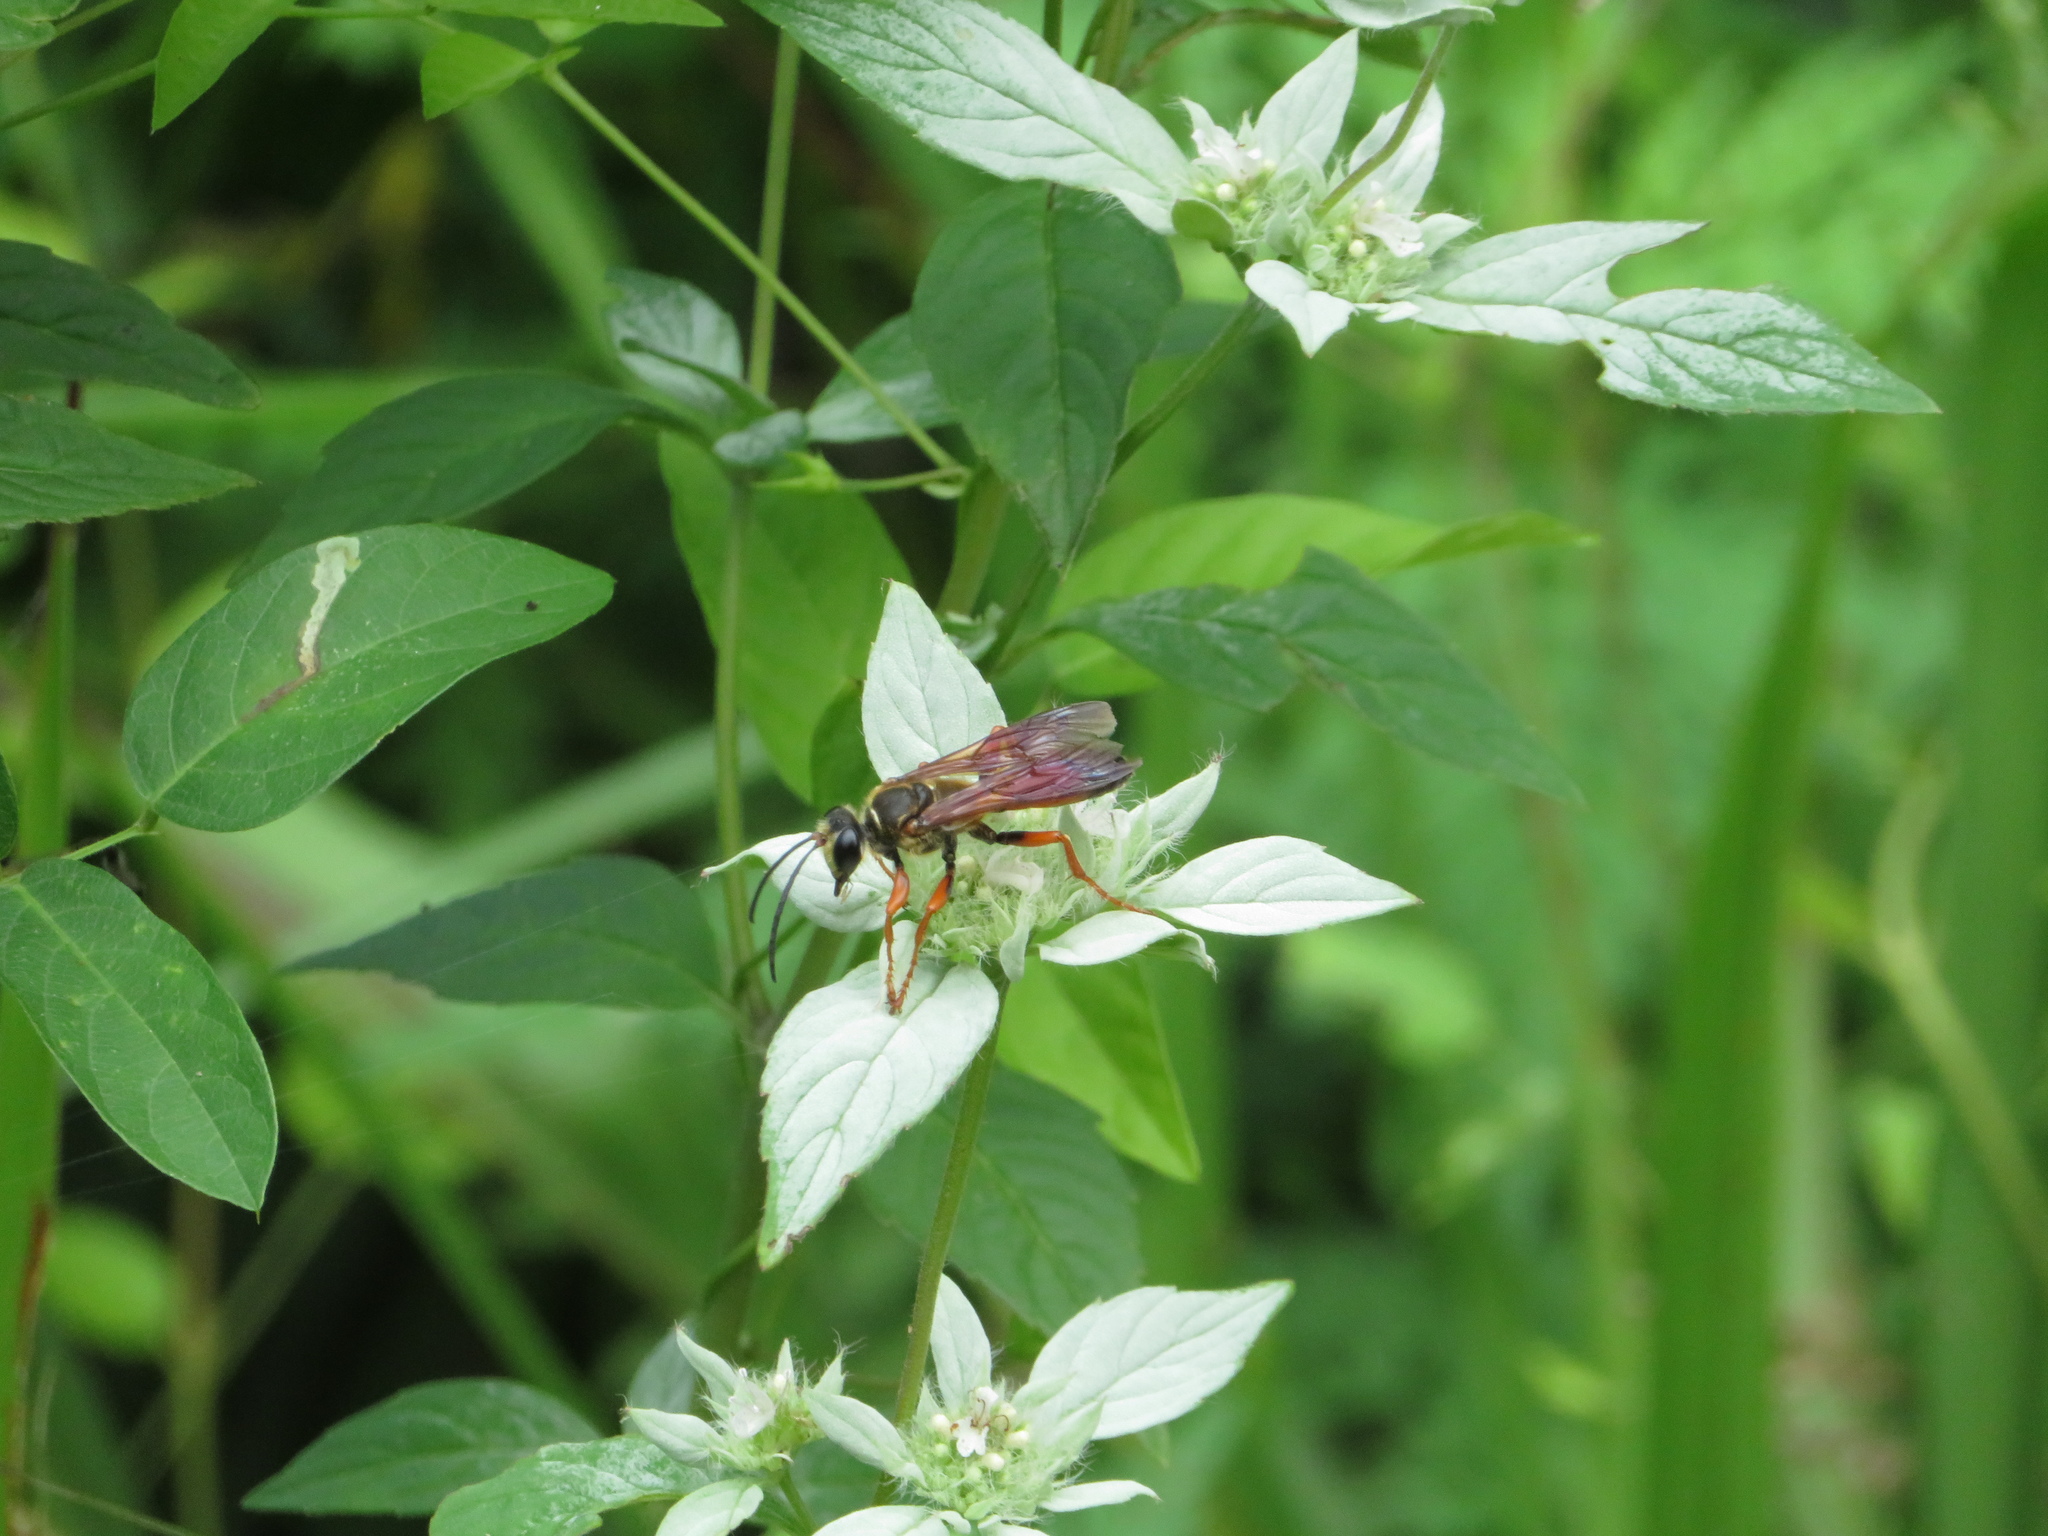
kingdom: Animalia
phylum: Arthropoda
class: Insecta
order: Hymenoptera
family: Sphecidae
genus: Sphex
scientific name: Sphex ichneumoneus
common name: Great golden digger wasp
